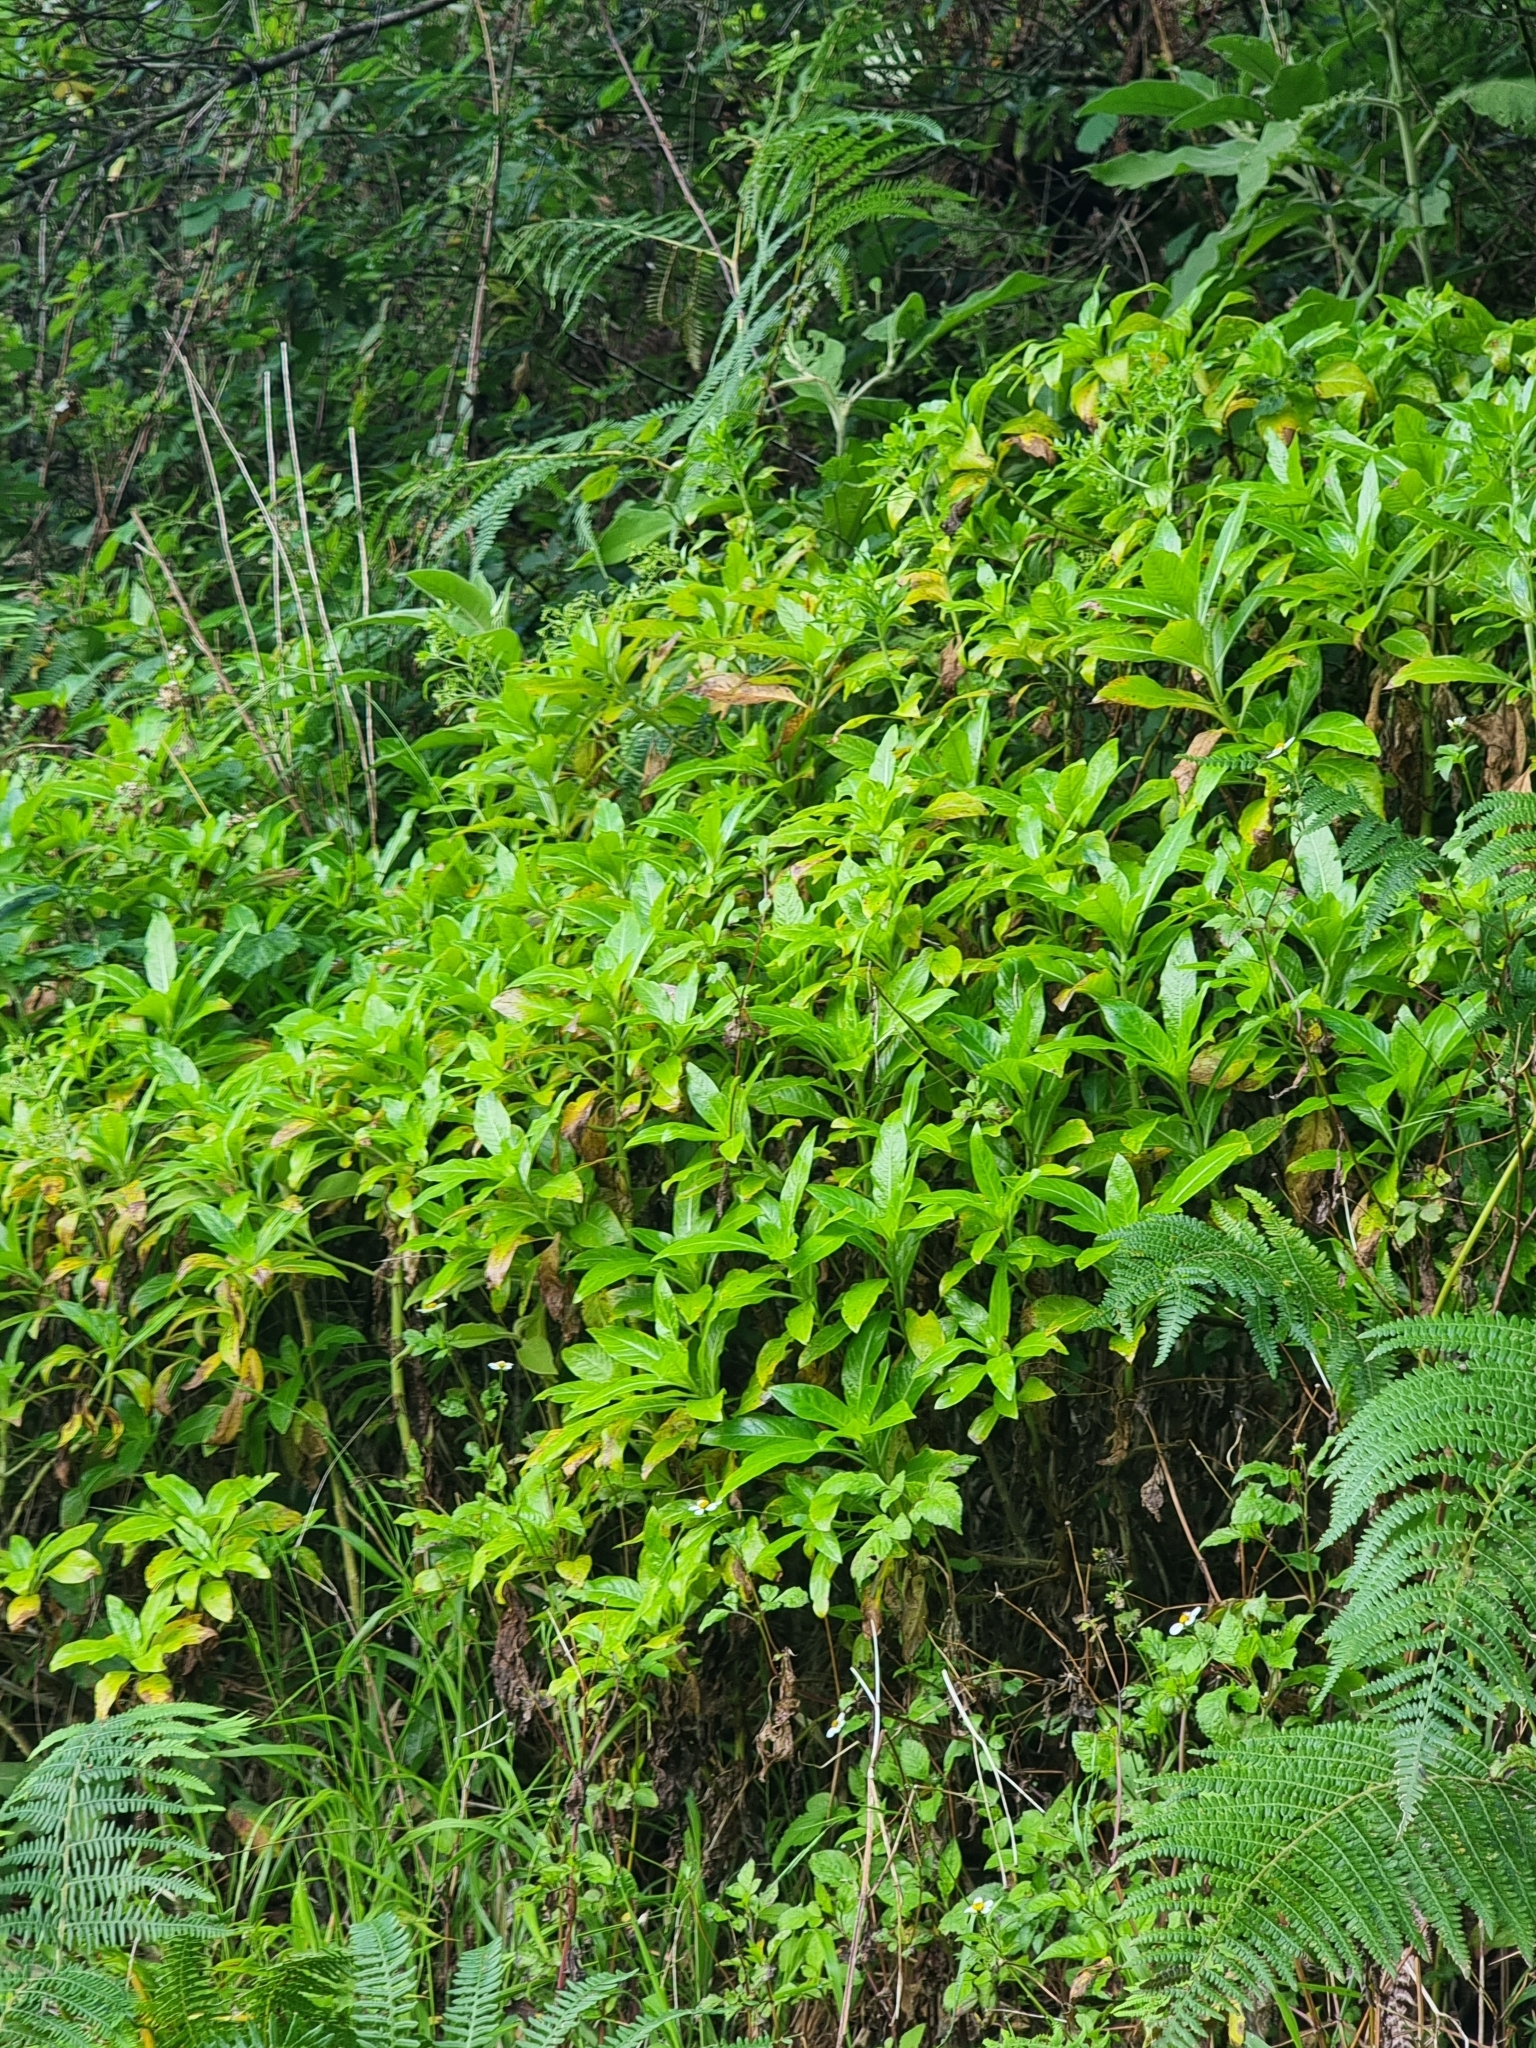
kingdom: Plantae
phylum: Tracheophyta
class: Magnoliopsida
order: Gentianales
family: Rubiaceae
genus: Phyllis
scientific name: Phyllis nobla
